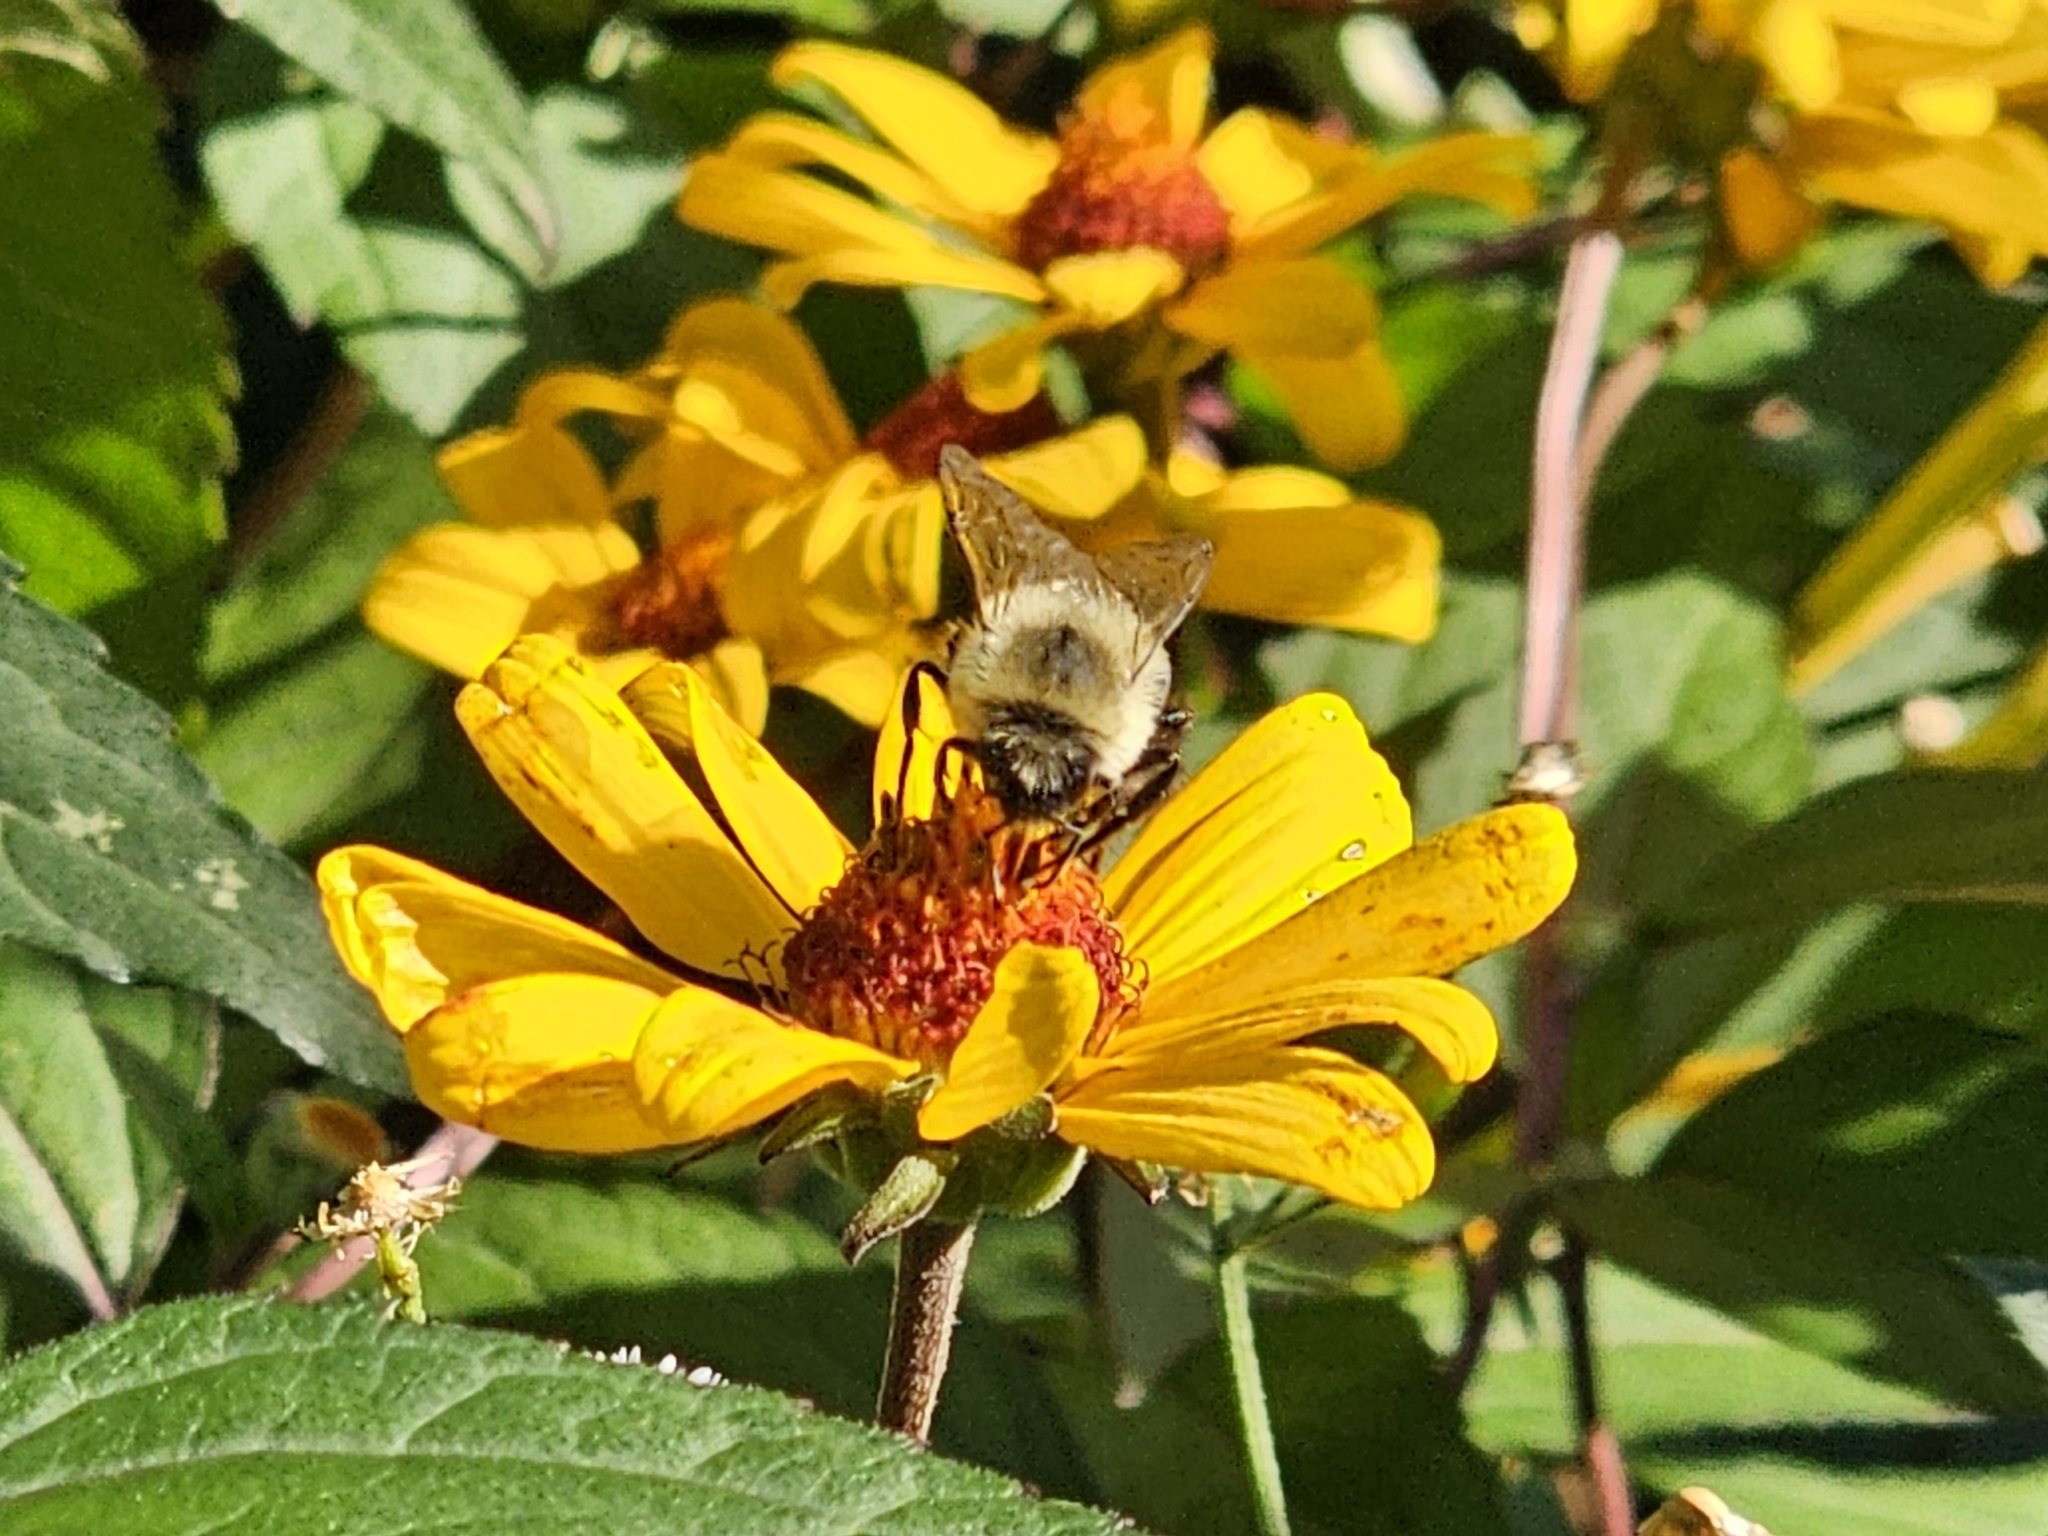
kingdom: Animalia
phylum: Arthropoda
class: Insecta
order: Hymenoptera
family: Apidae
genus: Bombus
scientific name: Bombus impatiens
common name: Common eastern bumble bee
